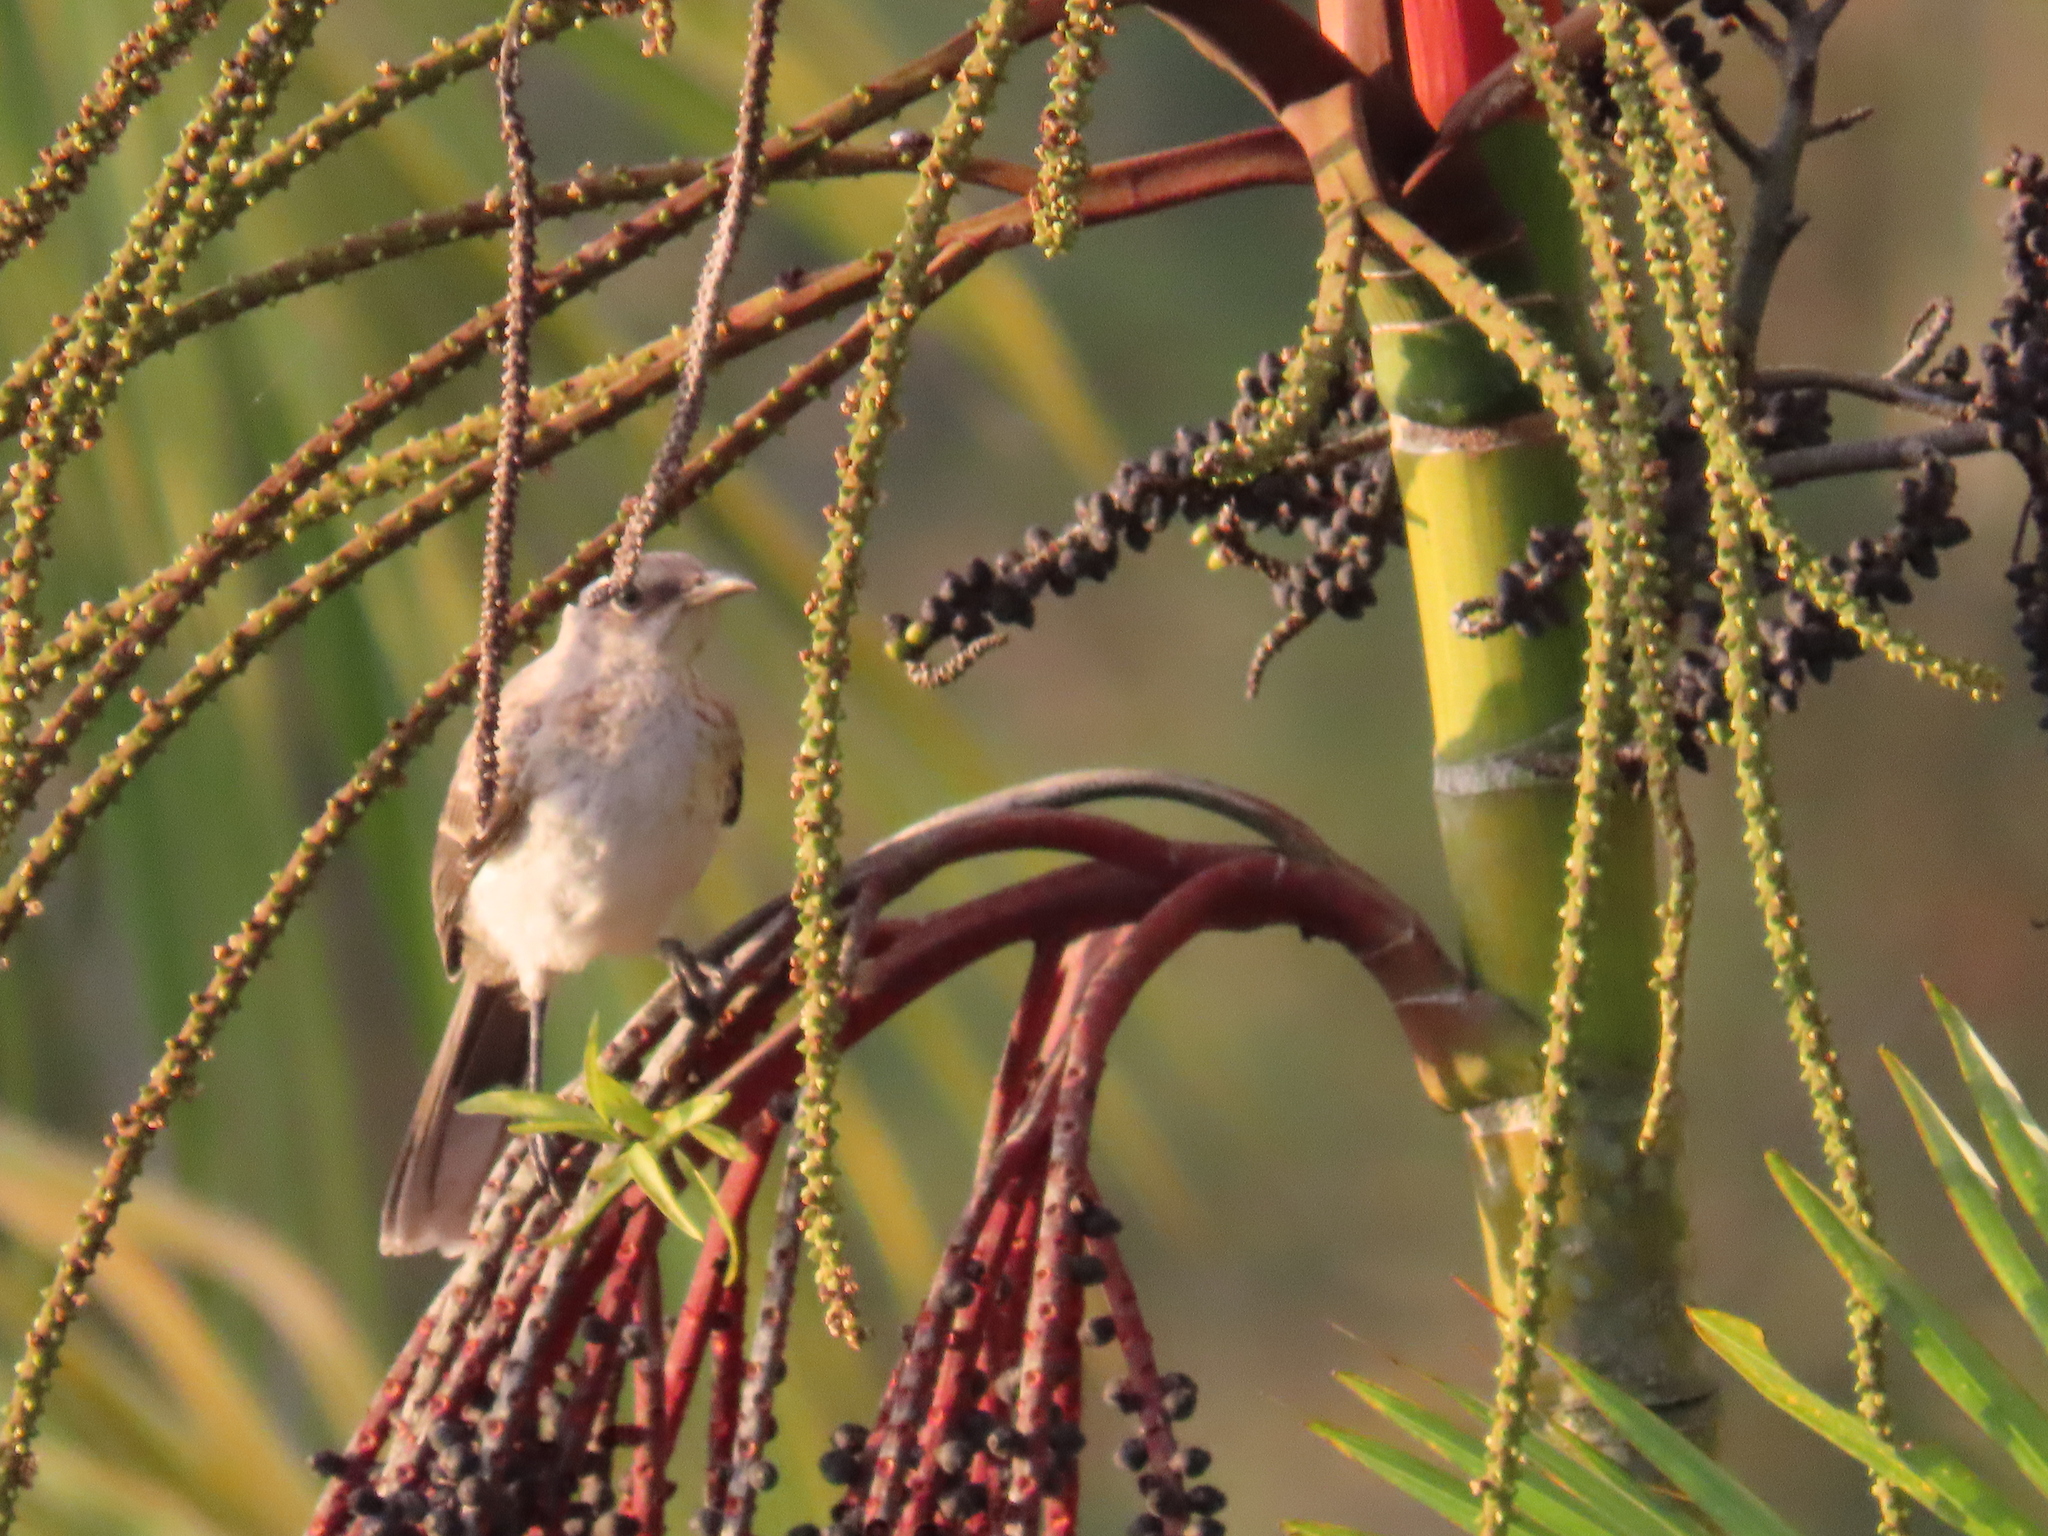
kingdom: Animalia
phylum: Chordata
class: Aves
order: Passeriformes
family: Mimidae
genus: Mimus
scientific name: Mimus gilvus
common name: Tropical mockingbird
